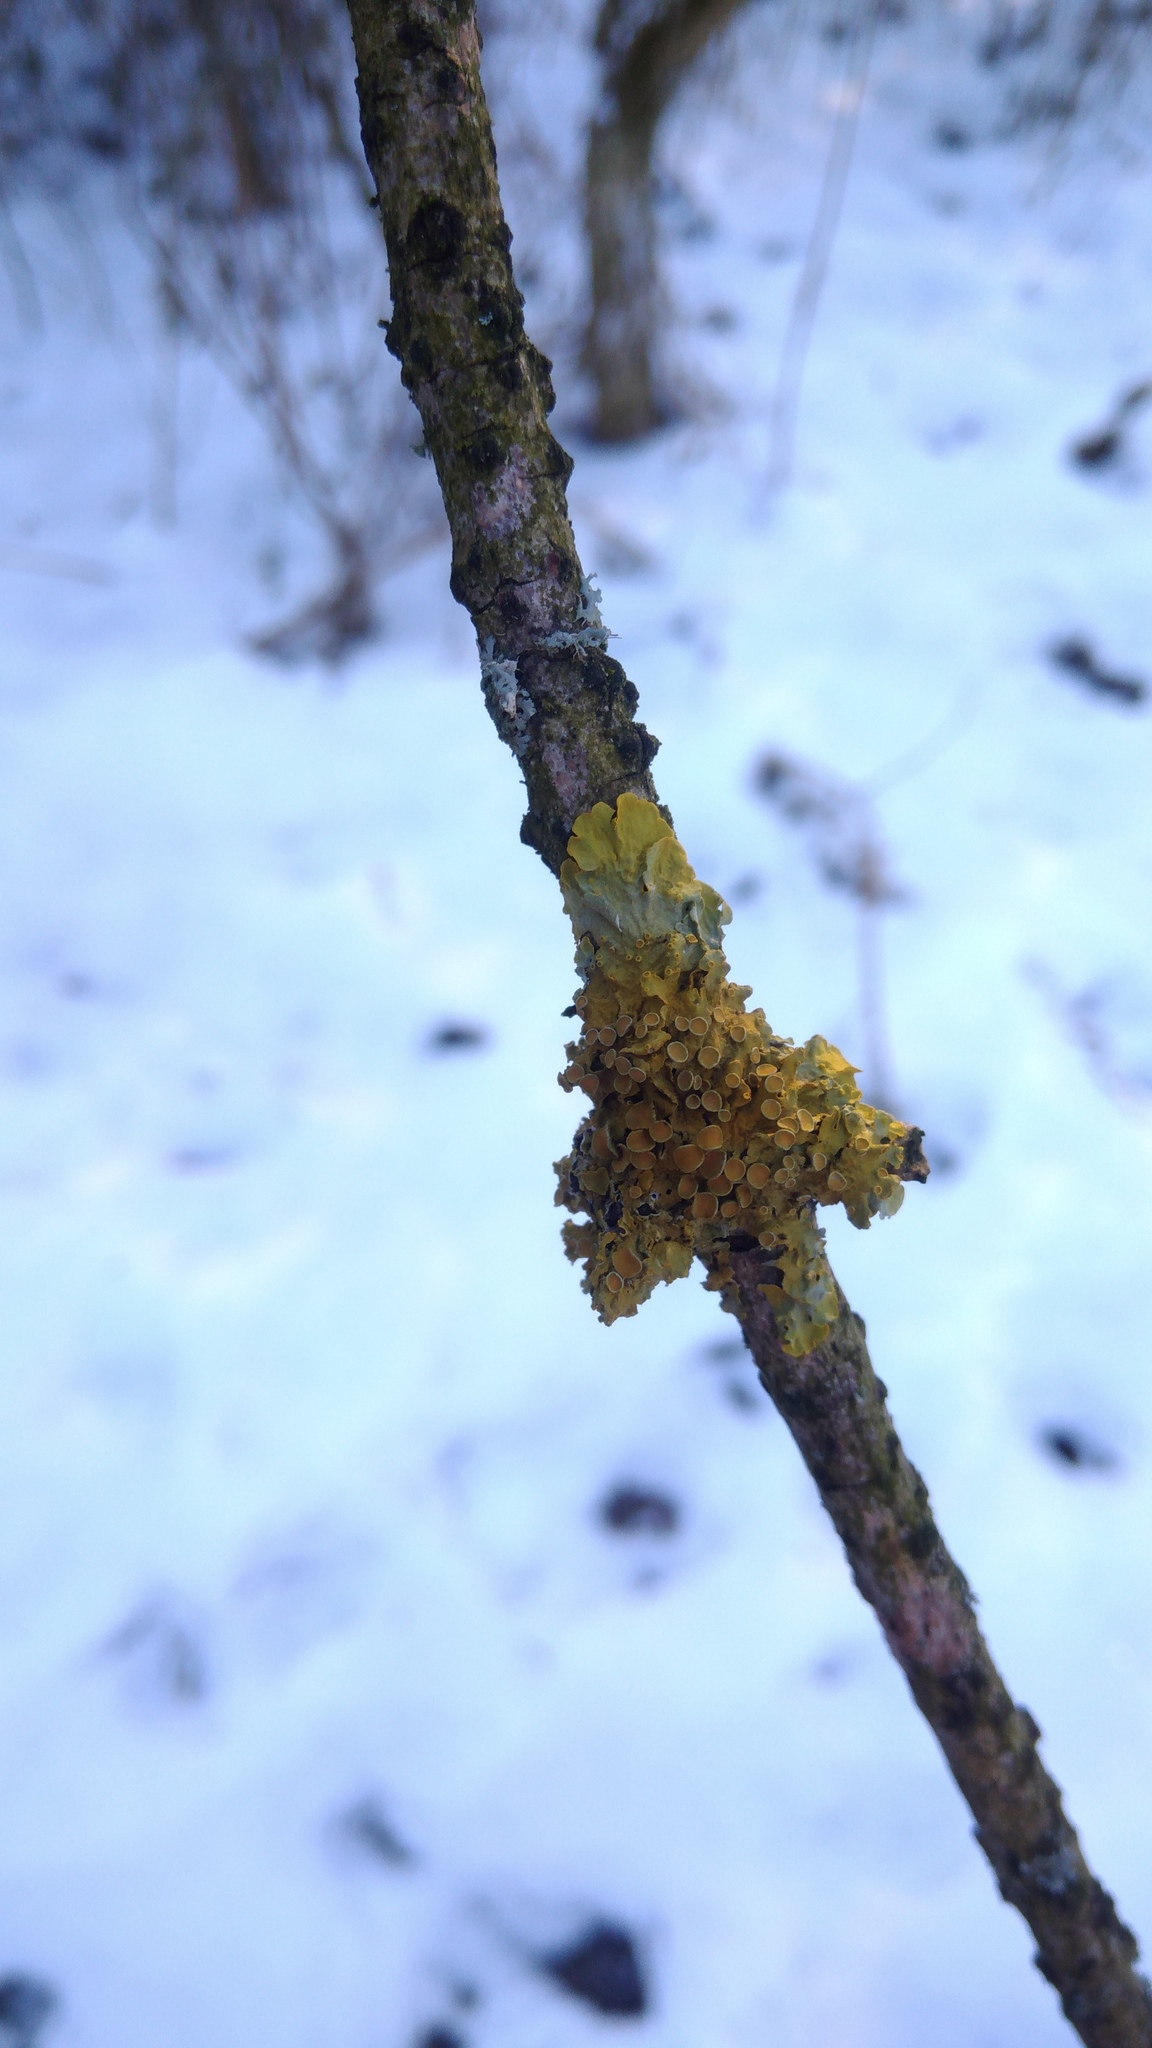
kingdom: Fungi
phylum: Ascomycota
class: Lecanoromycetes
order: Teloschistales
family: Teloschistaceae
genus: Xanthoria
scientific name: Xanthoria parietina
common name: Common orange lichen
